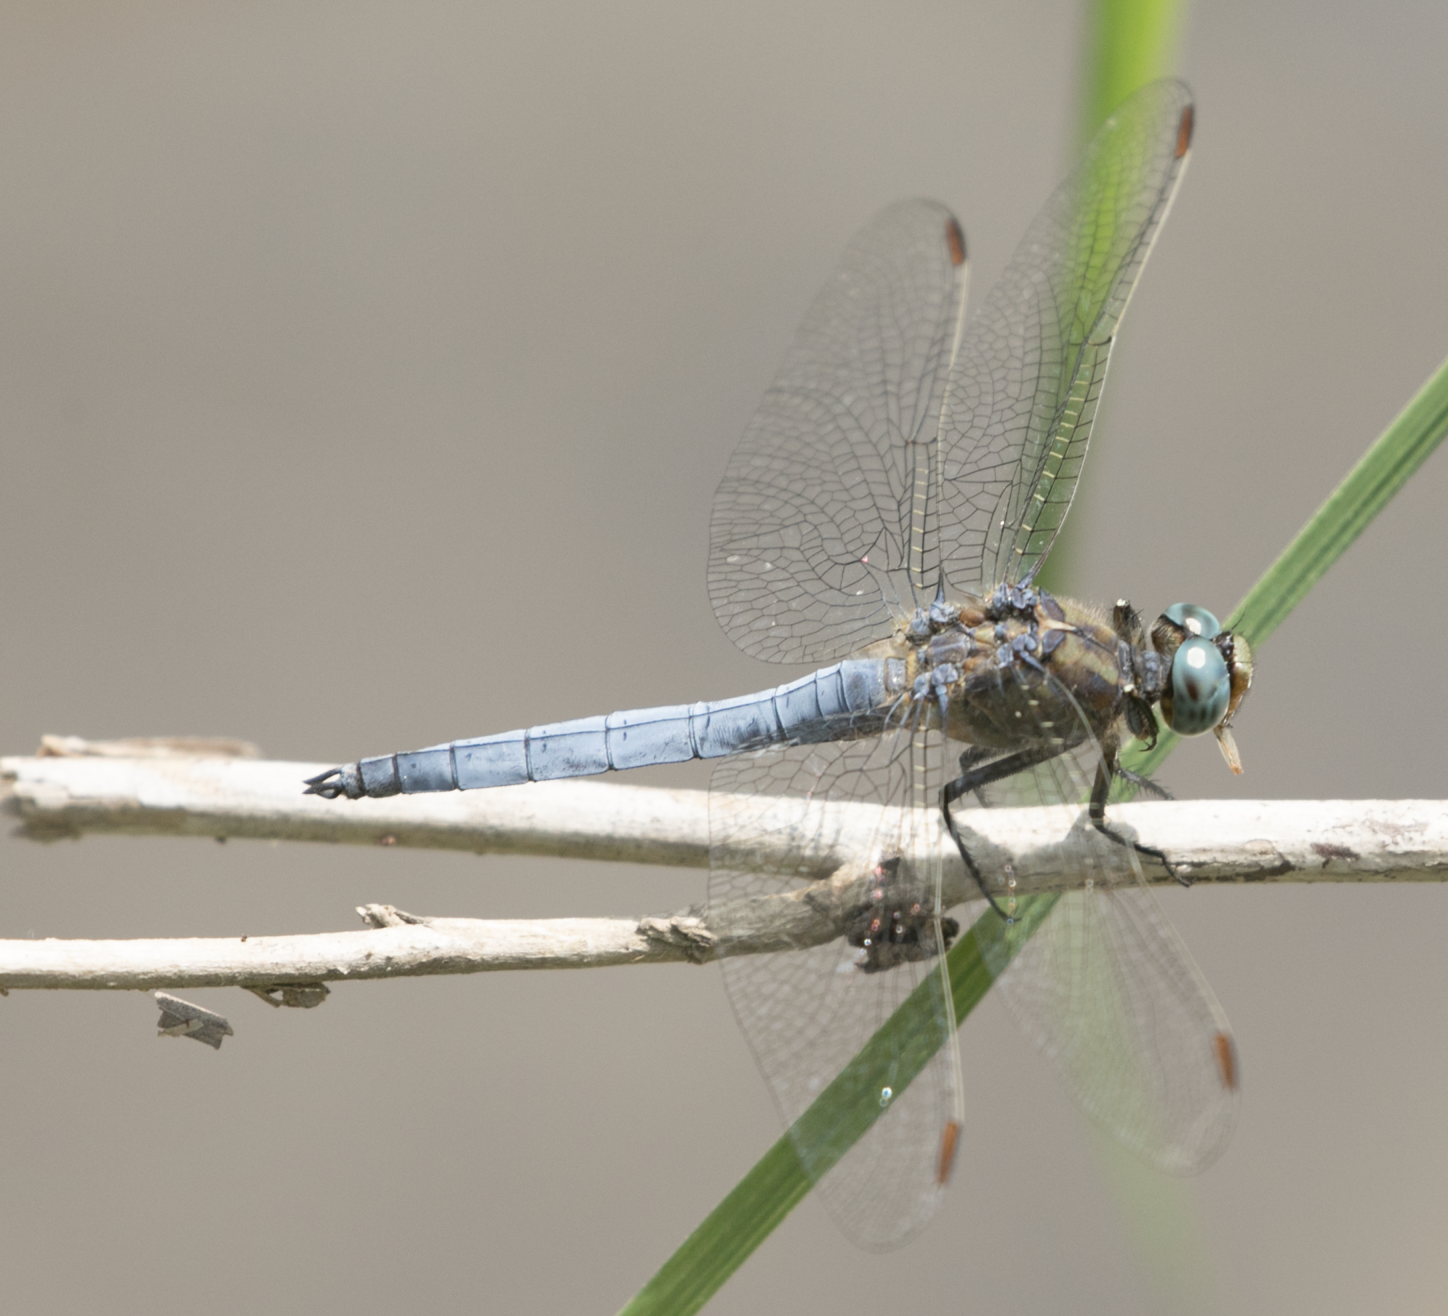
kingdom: Animalia
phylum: Arthropoda
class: Insecta
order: Odonata
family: Libellulidae
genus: Orthetrum
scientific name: Orthetrum coerulescens
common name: Keeled skimmer
